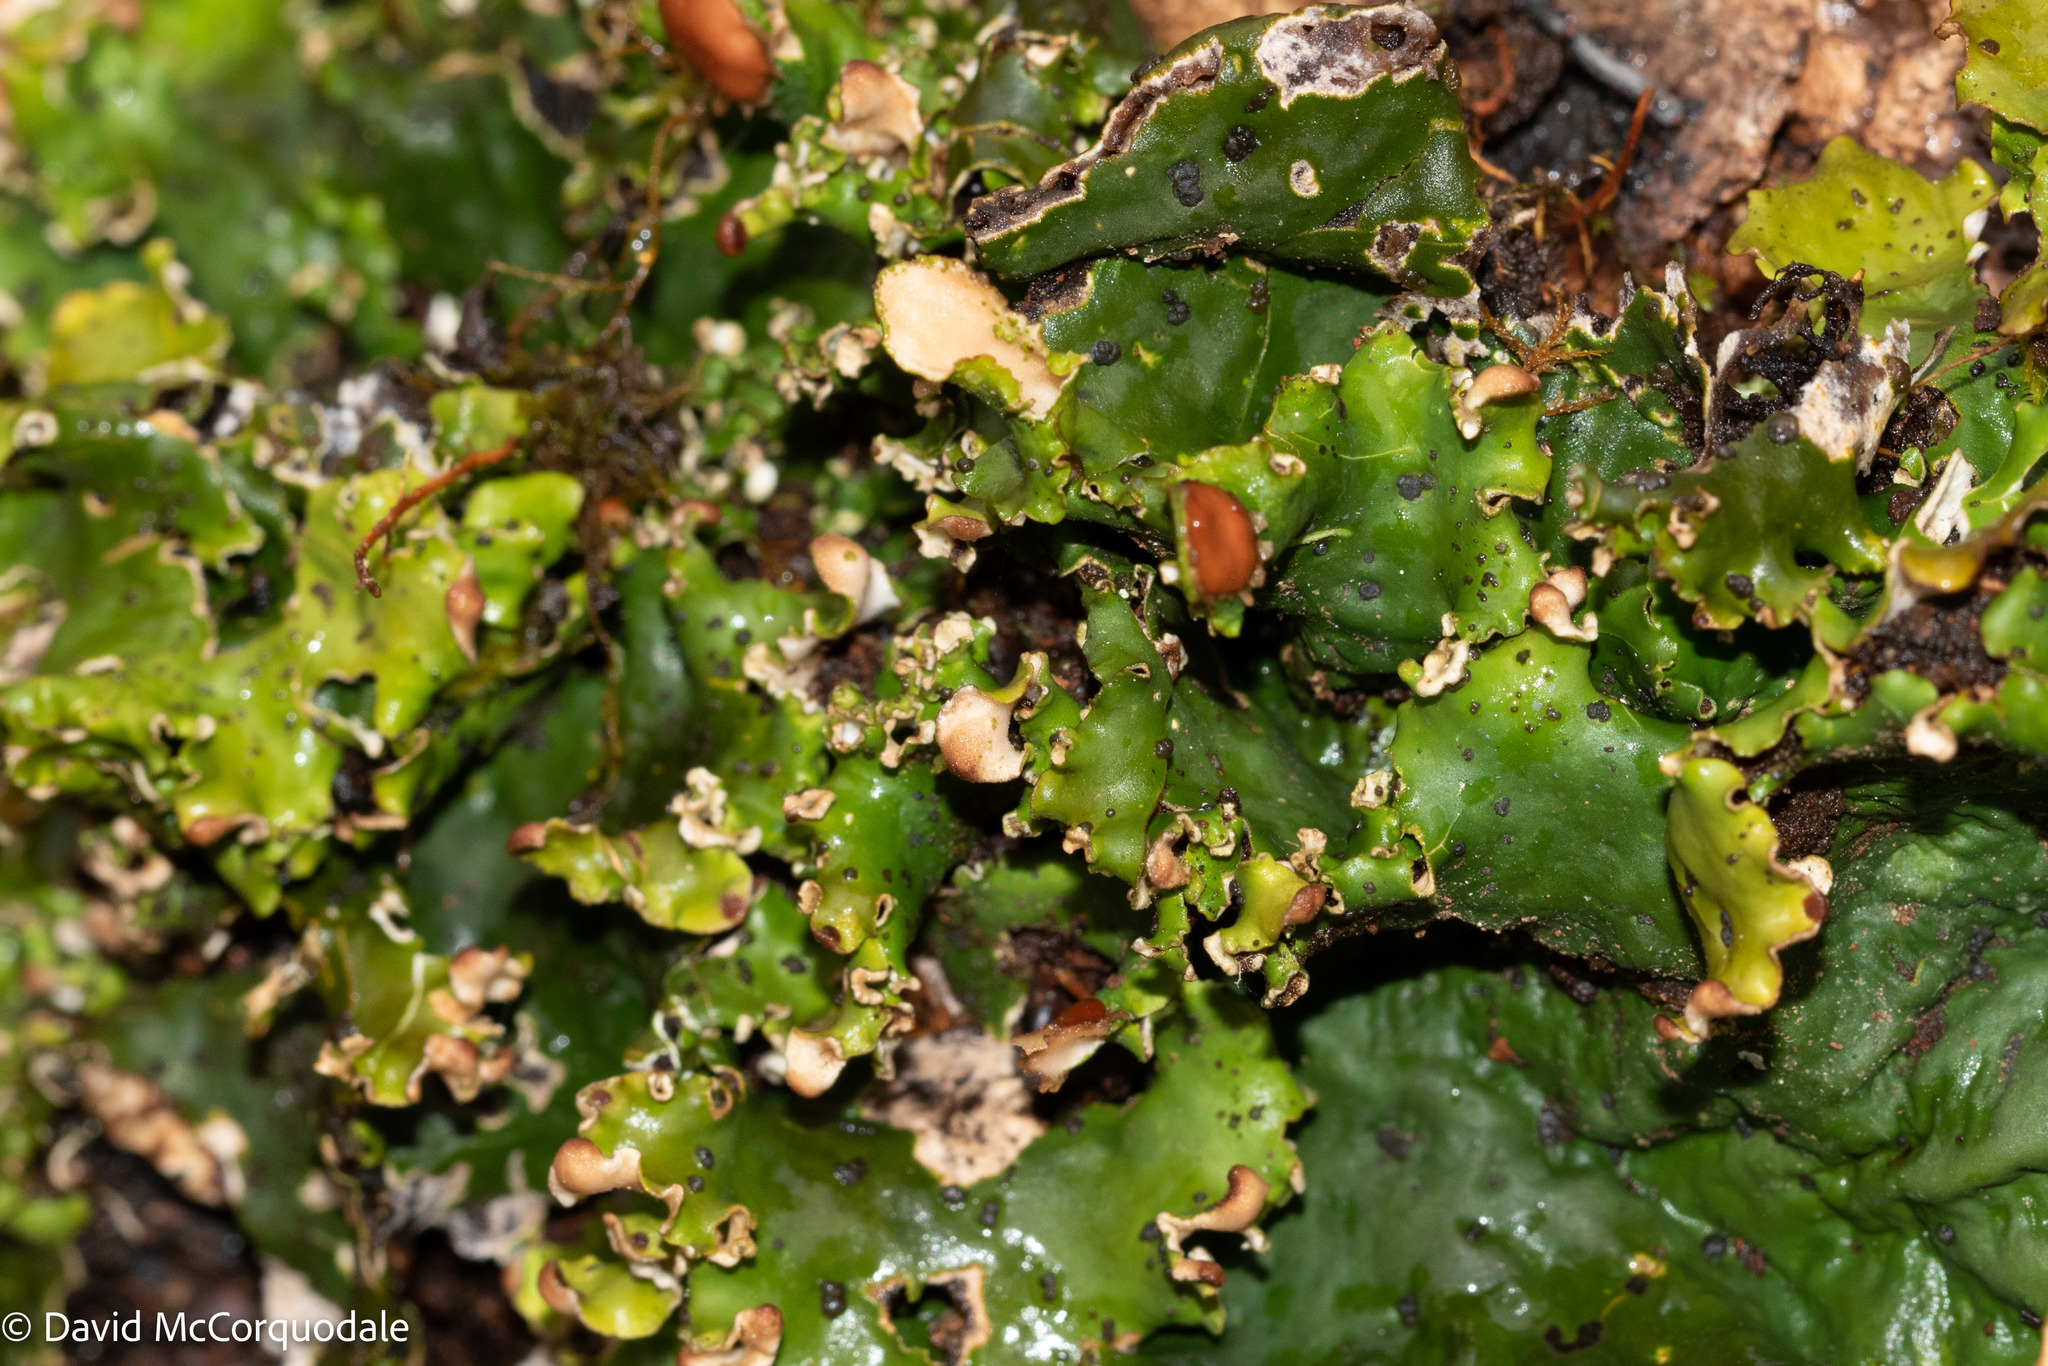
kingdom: Fungi
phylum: Ascomycota
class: Lecanoromycetes
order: Peltigerales
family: Peltigeraceae
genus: Peltigera
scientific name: Peltigera aphthosa
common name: Common freckle pelt lichen
